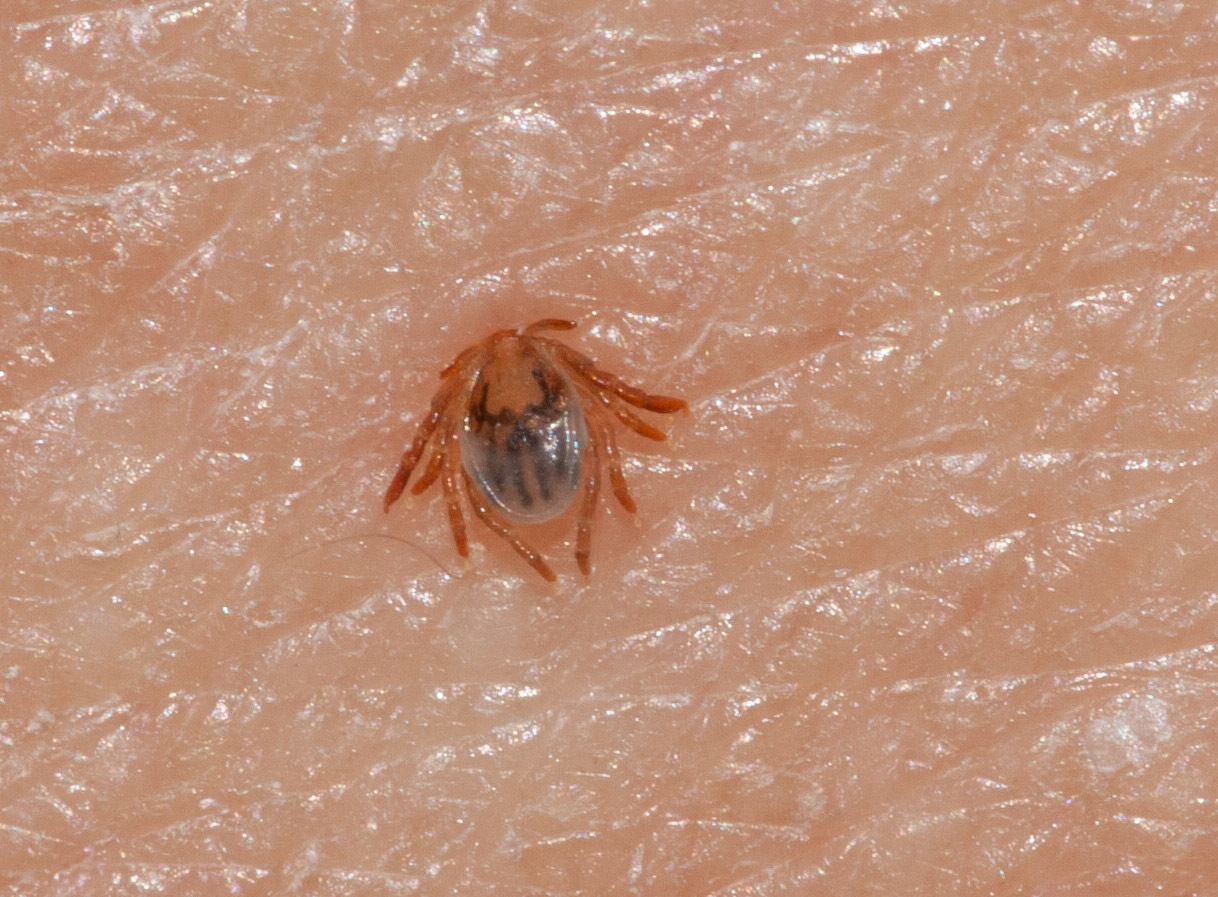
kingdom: Animalia
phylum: Arthropoda
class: Arachnida
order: Ixodida
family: Ixodidae
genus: Ixodes
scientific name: Ixodes holocyclus
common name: Australian paralysis tick
